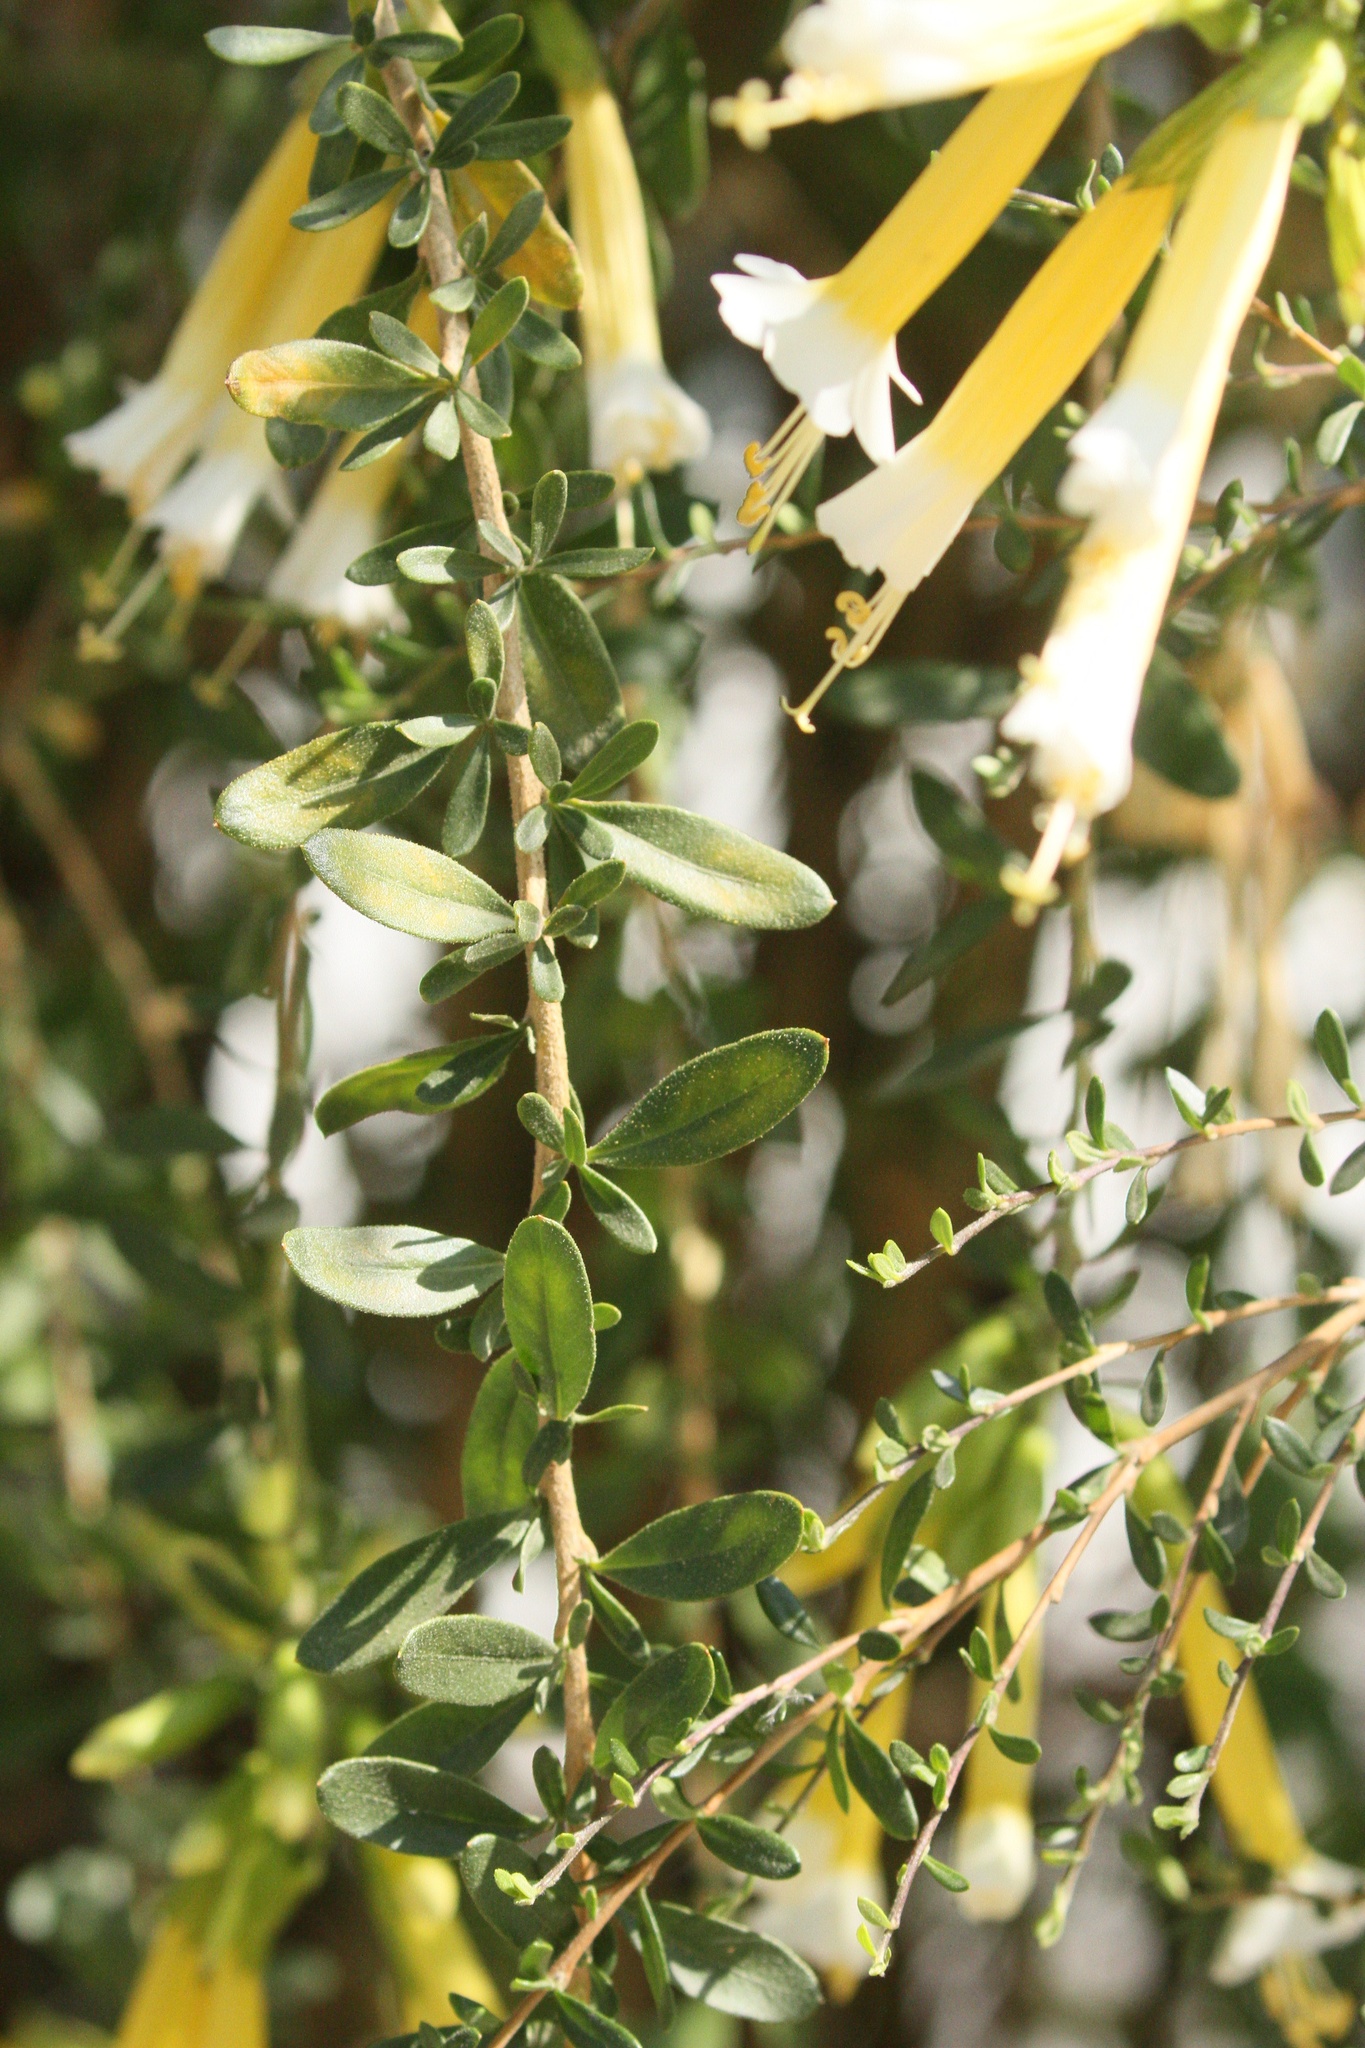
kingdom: Plantae
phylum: Tracheophyta
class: Magnoliopsida
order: Ericales
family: Polemoniaceae
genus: Cantua
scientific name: Cantua buxifolia
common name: Sacred-flower-of-the-incas
